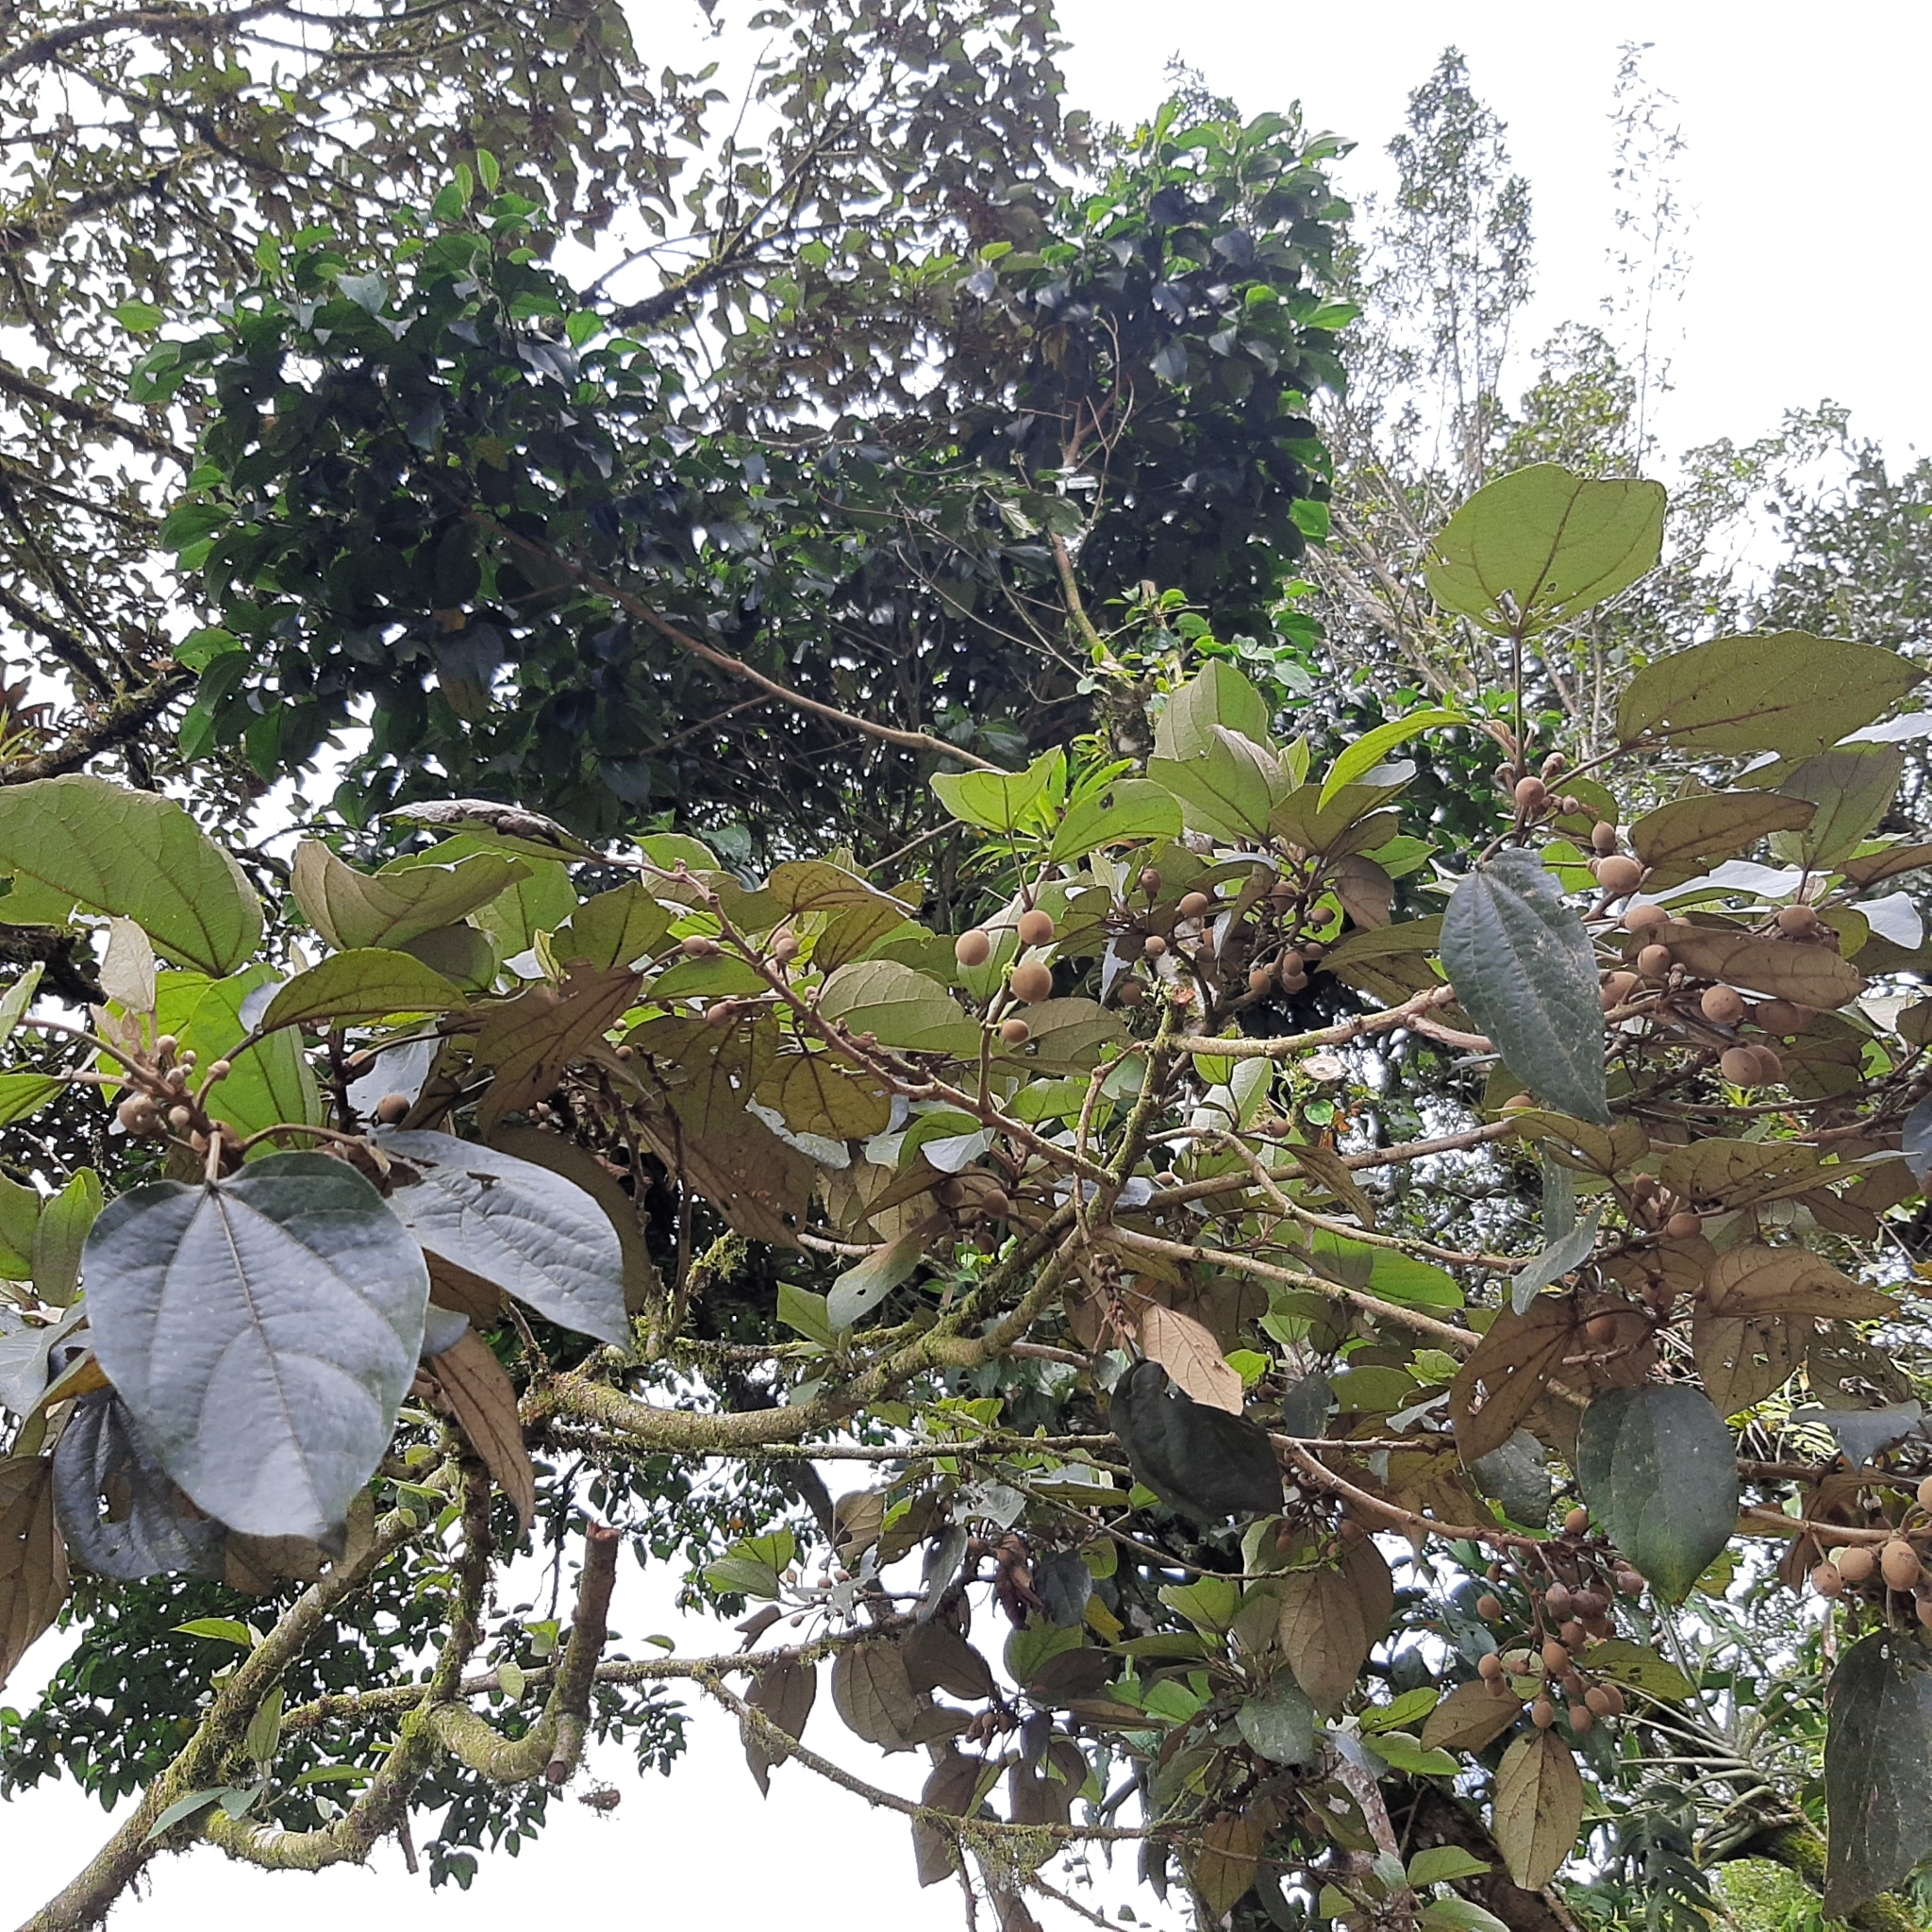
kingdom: Plantae
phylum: Tracheophyta
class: Magnoliopsida
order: Malvales
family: Malvaceae
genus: Hampea
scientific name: Hampea appendiculata
